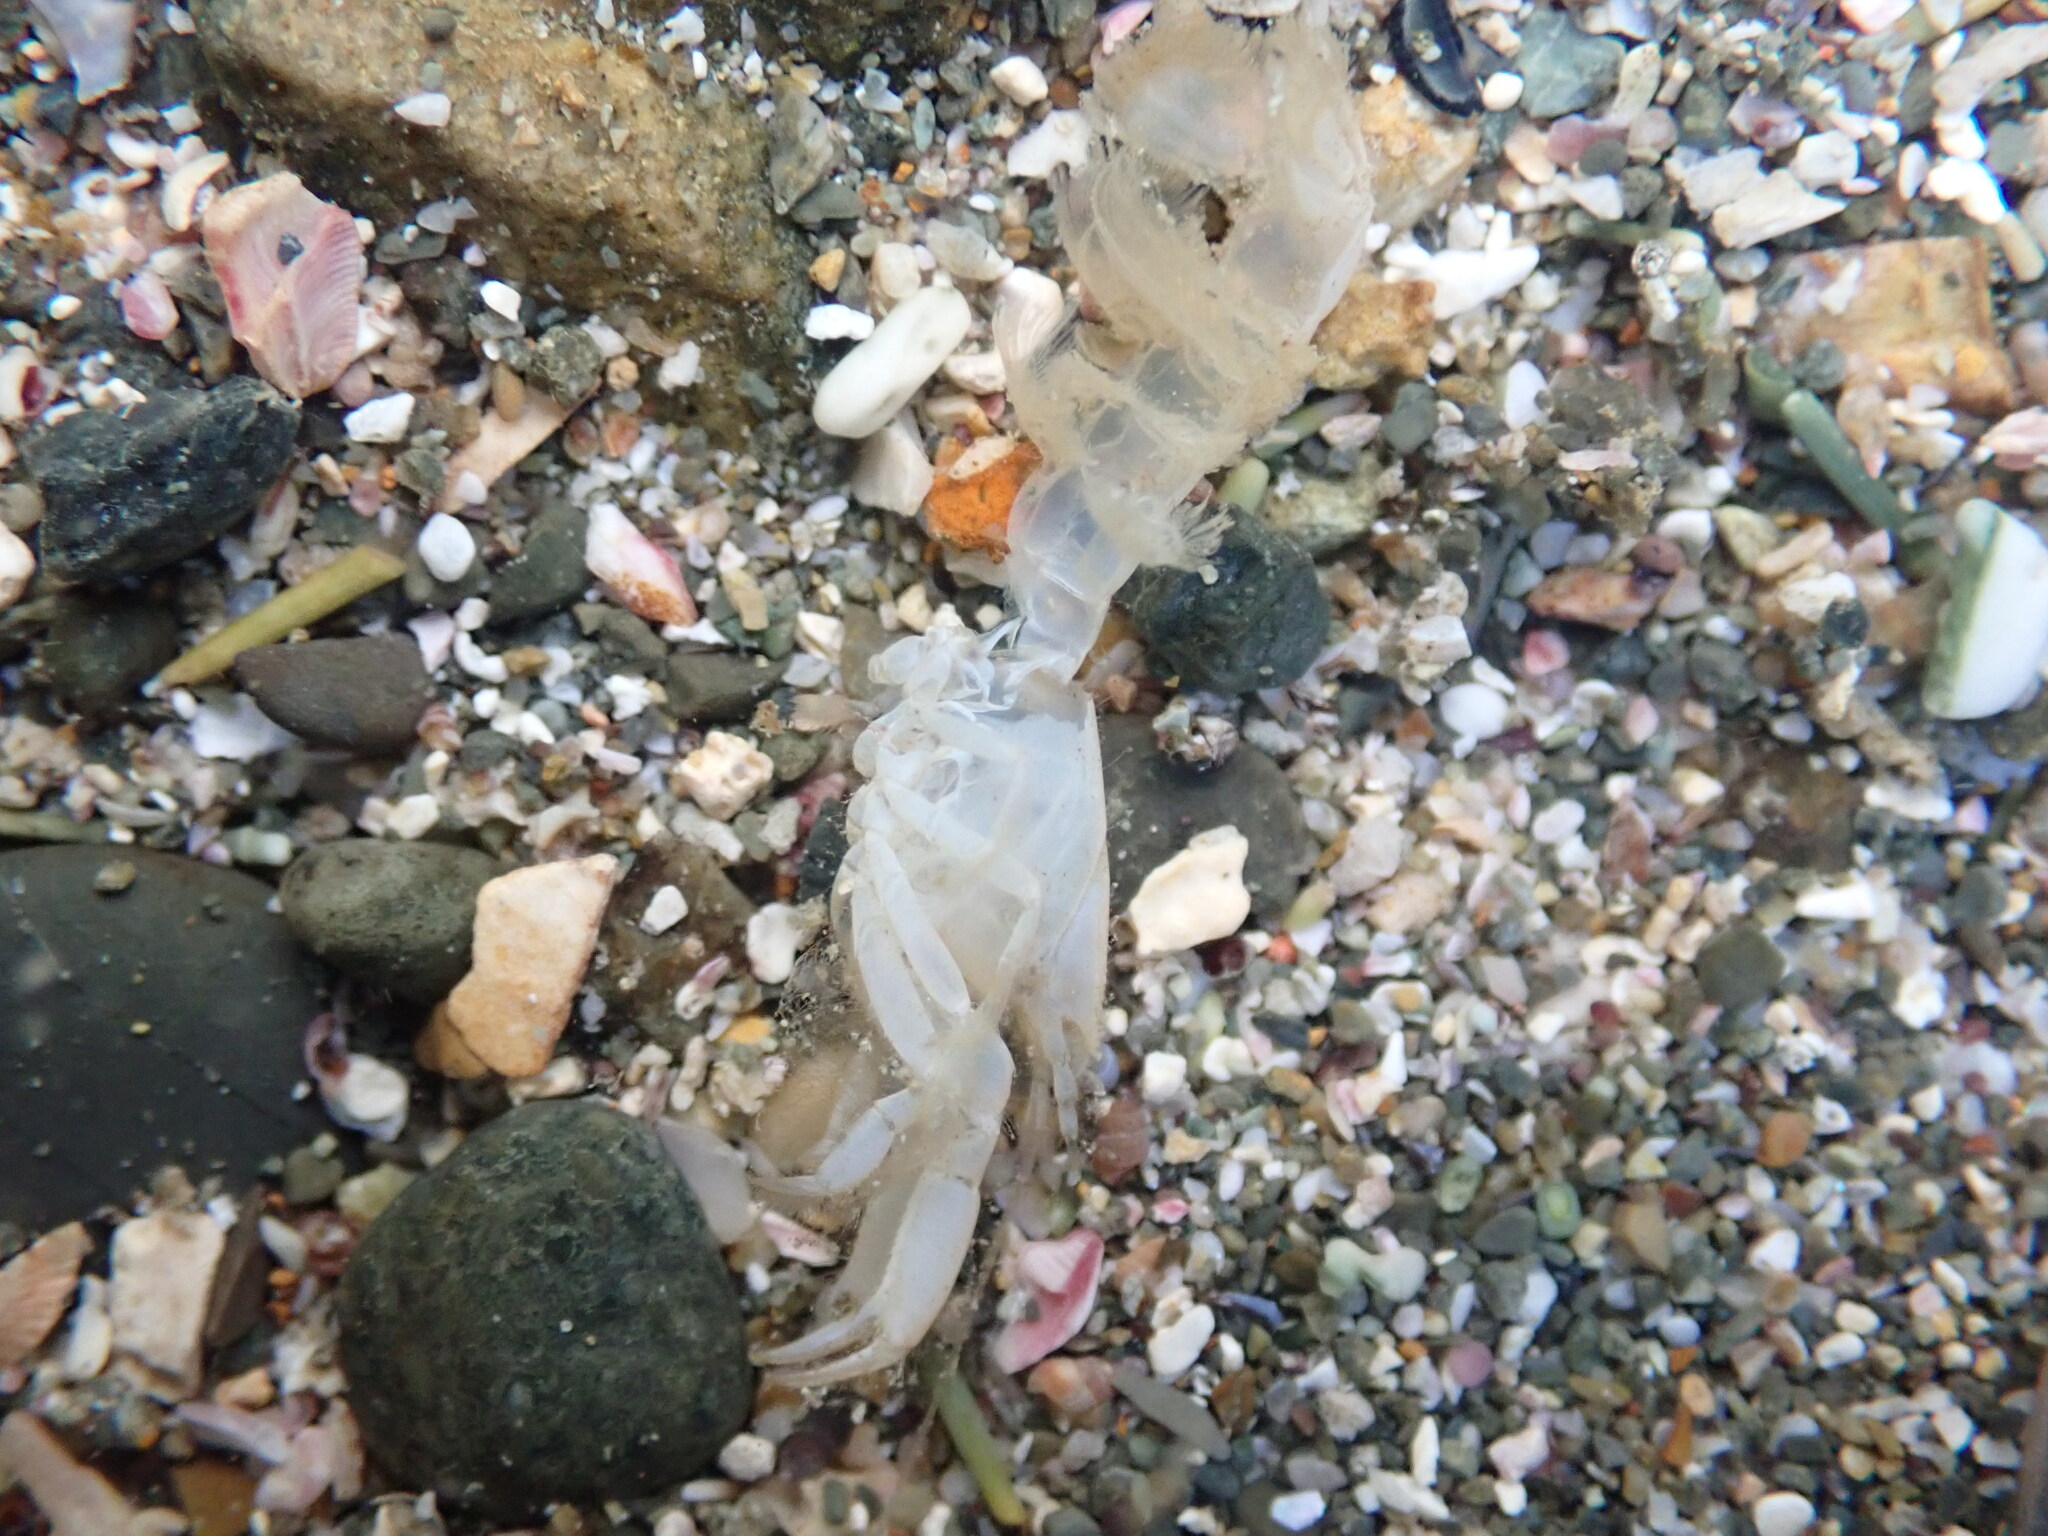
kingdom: Animalia
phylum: Arthropoda
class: Malacostraca
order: Decapoda
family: Upogebiidae
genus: Acutigebia
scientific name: Acutigebia danai
